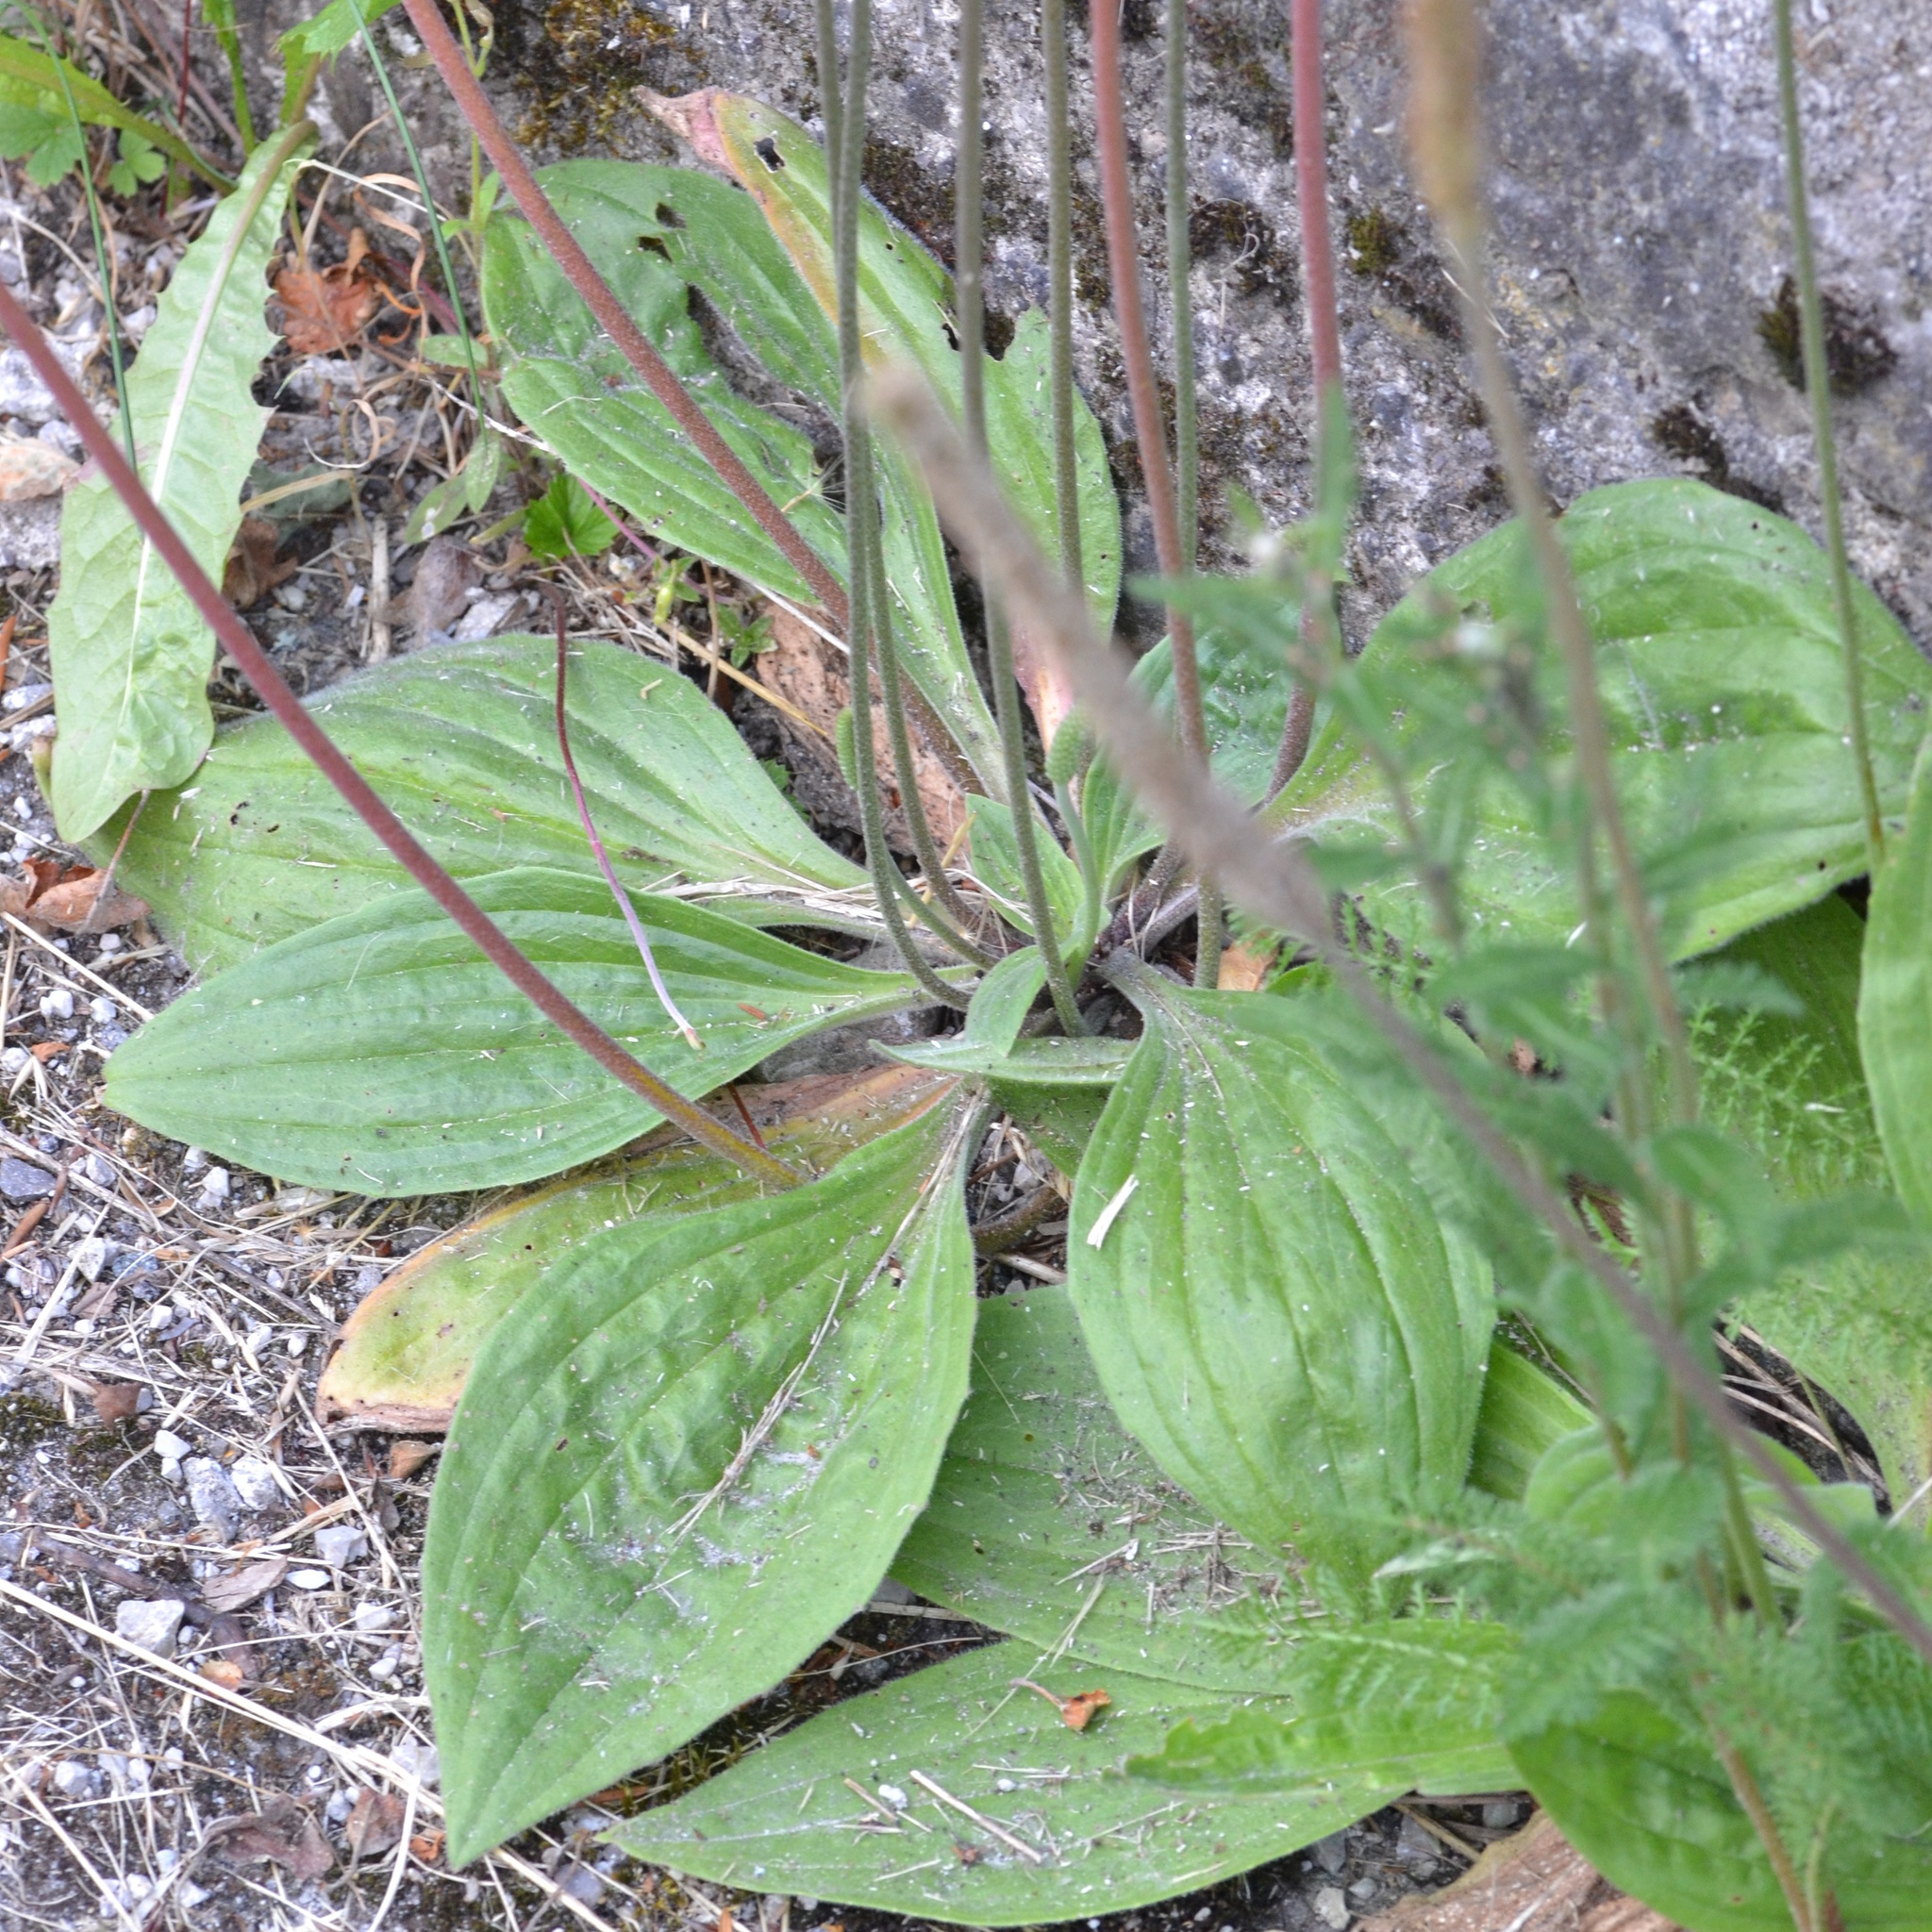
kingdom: Plantae
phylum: Tracheophyta
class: Magnoliopsida
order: Lamiales
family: Plantaginaceae
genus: Plantago
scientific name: Plantago media
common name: Hoary plantain
